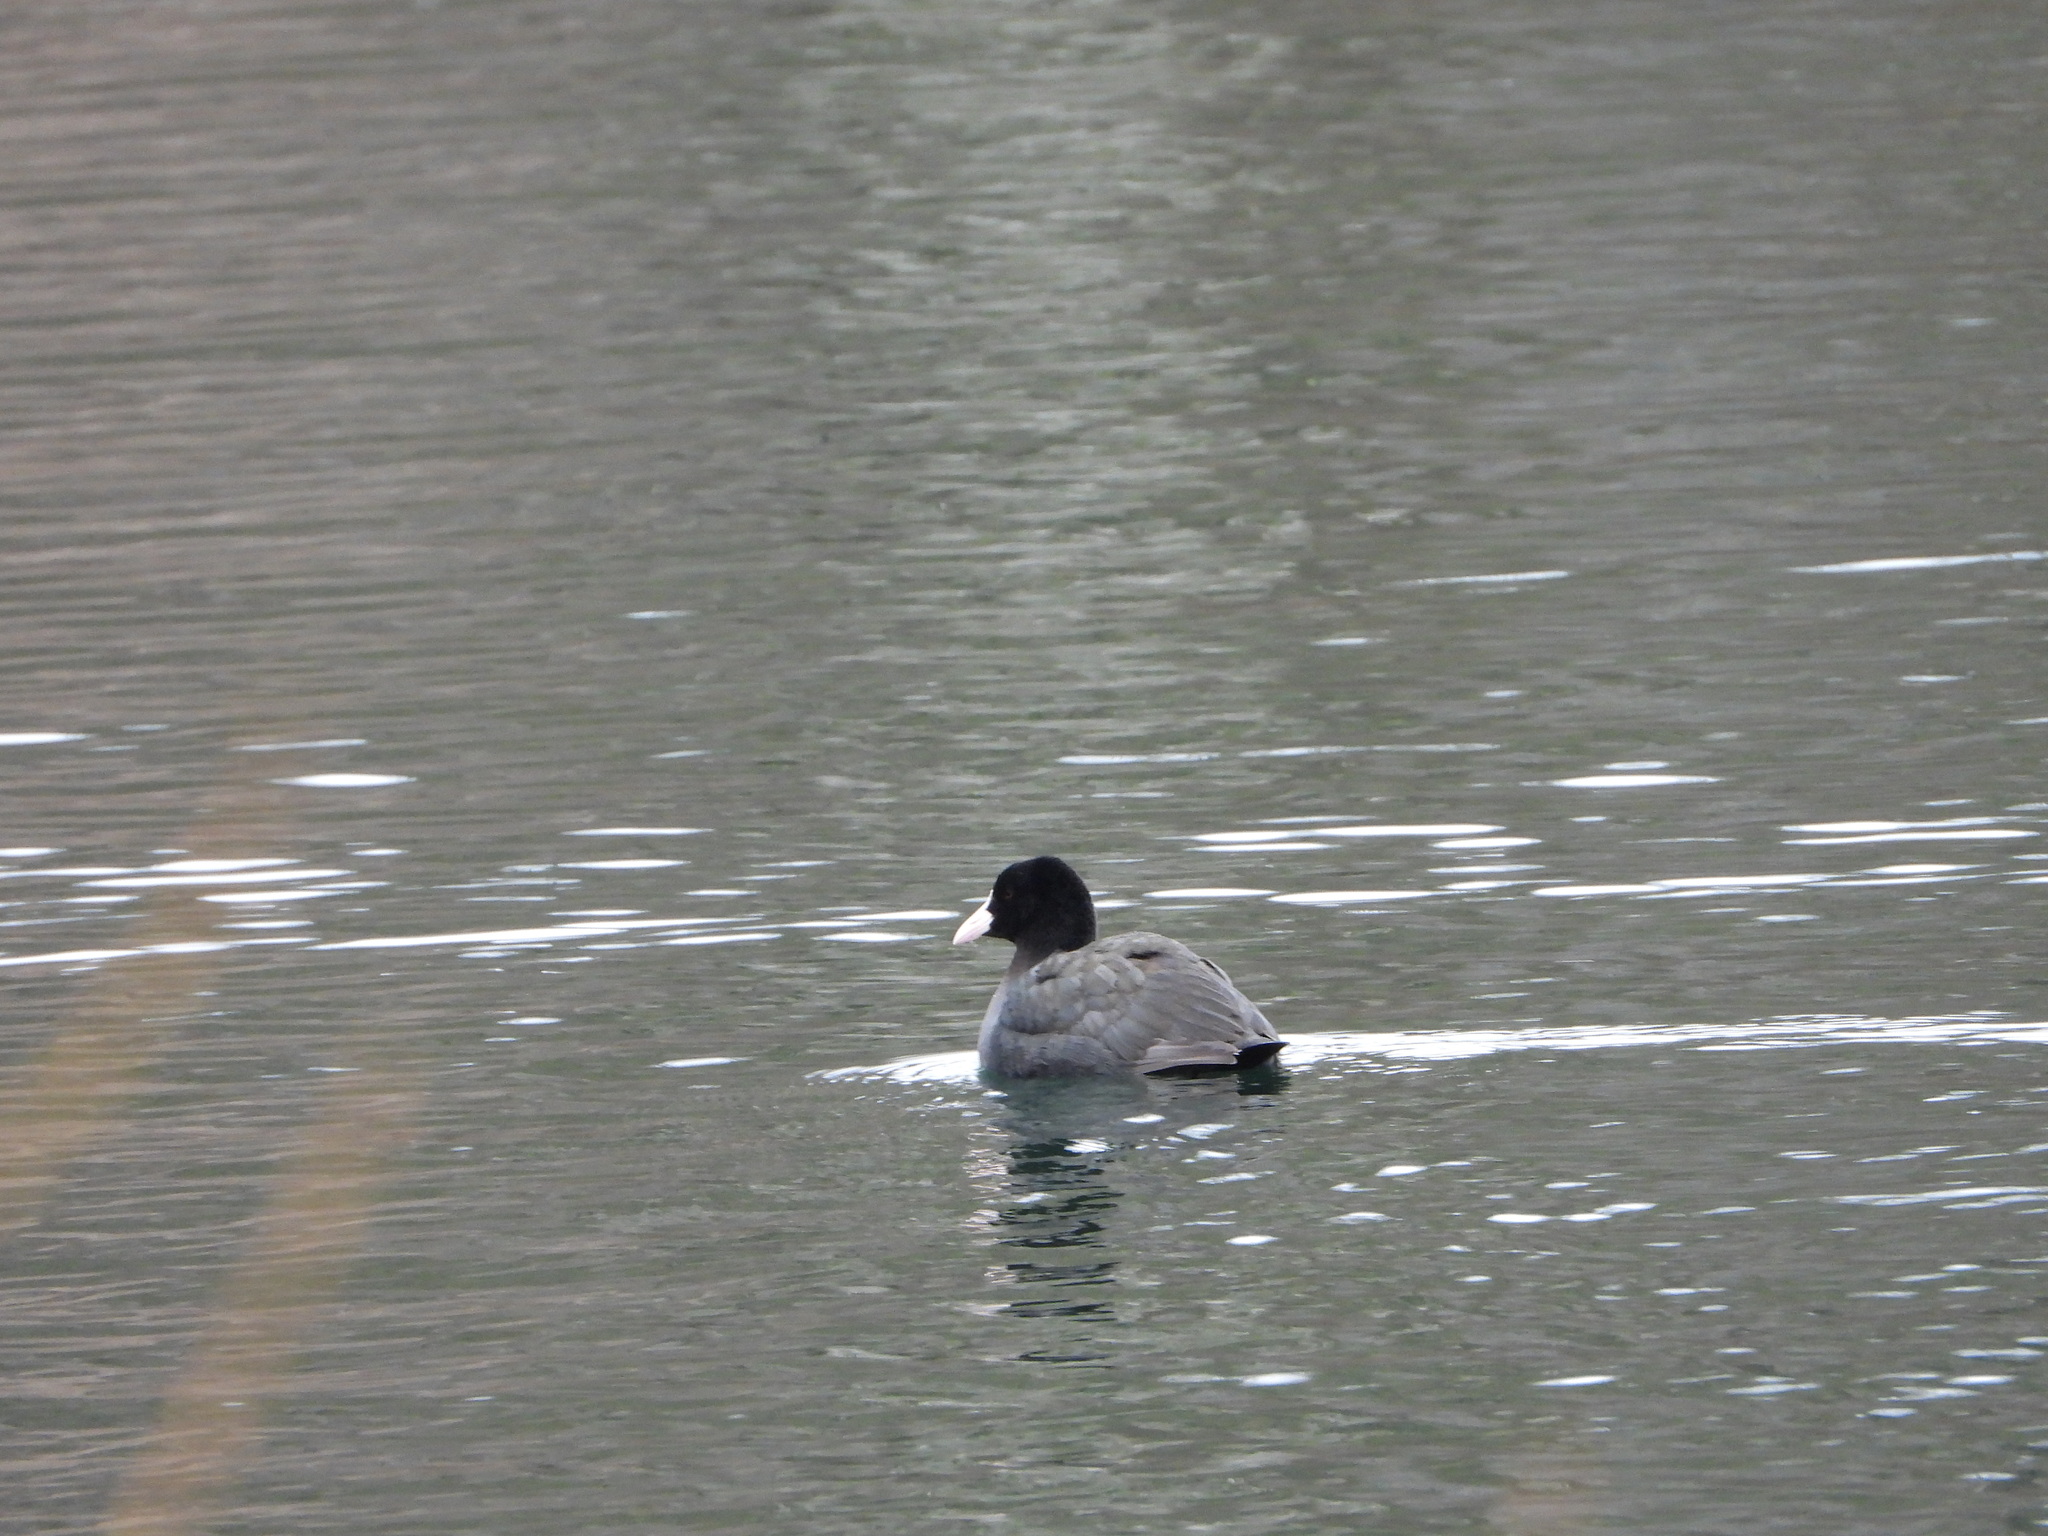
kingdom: Animalia
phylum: Chordata
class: Aves
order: Gruiformes
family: Rallidae
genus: Fulica
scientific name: Fulica atra
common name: Eurasian coot
